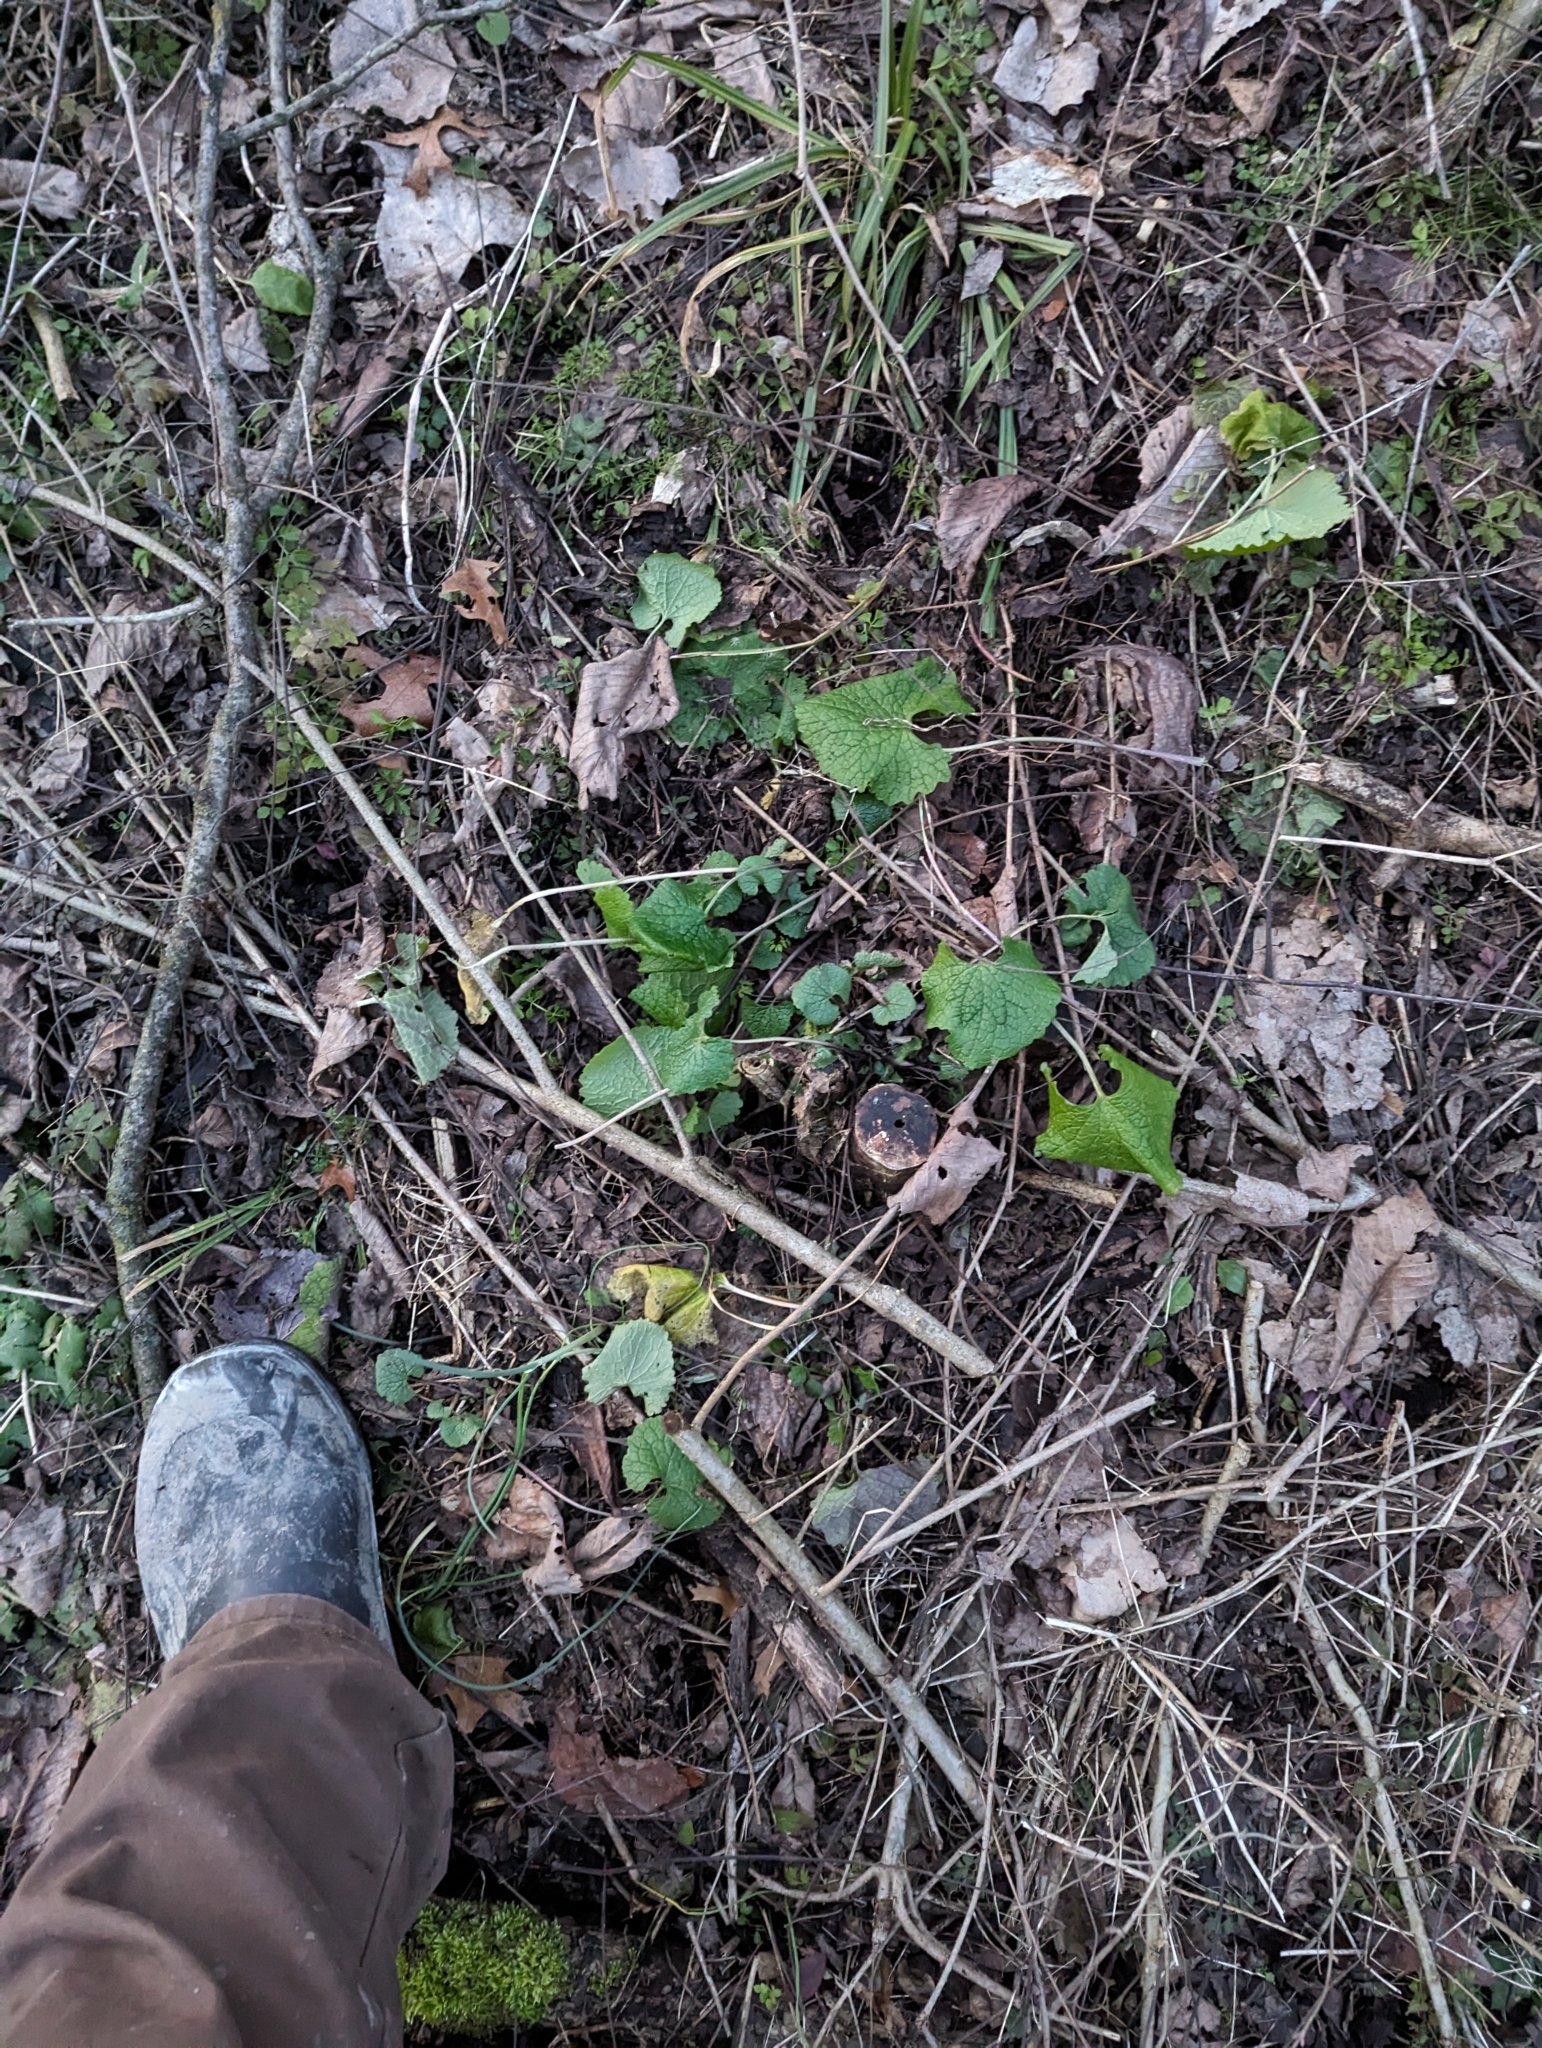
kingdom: Plantae
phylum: Tracheophyta
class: Magnoliopsida
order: Brassicales
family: Brassicaceae
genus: Alliaria
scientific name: Alliaria petiolata
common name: Garlic mustard
